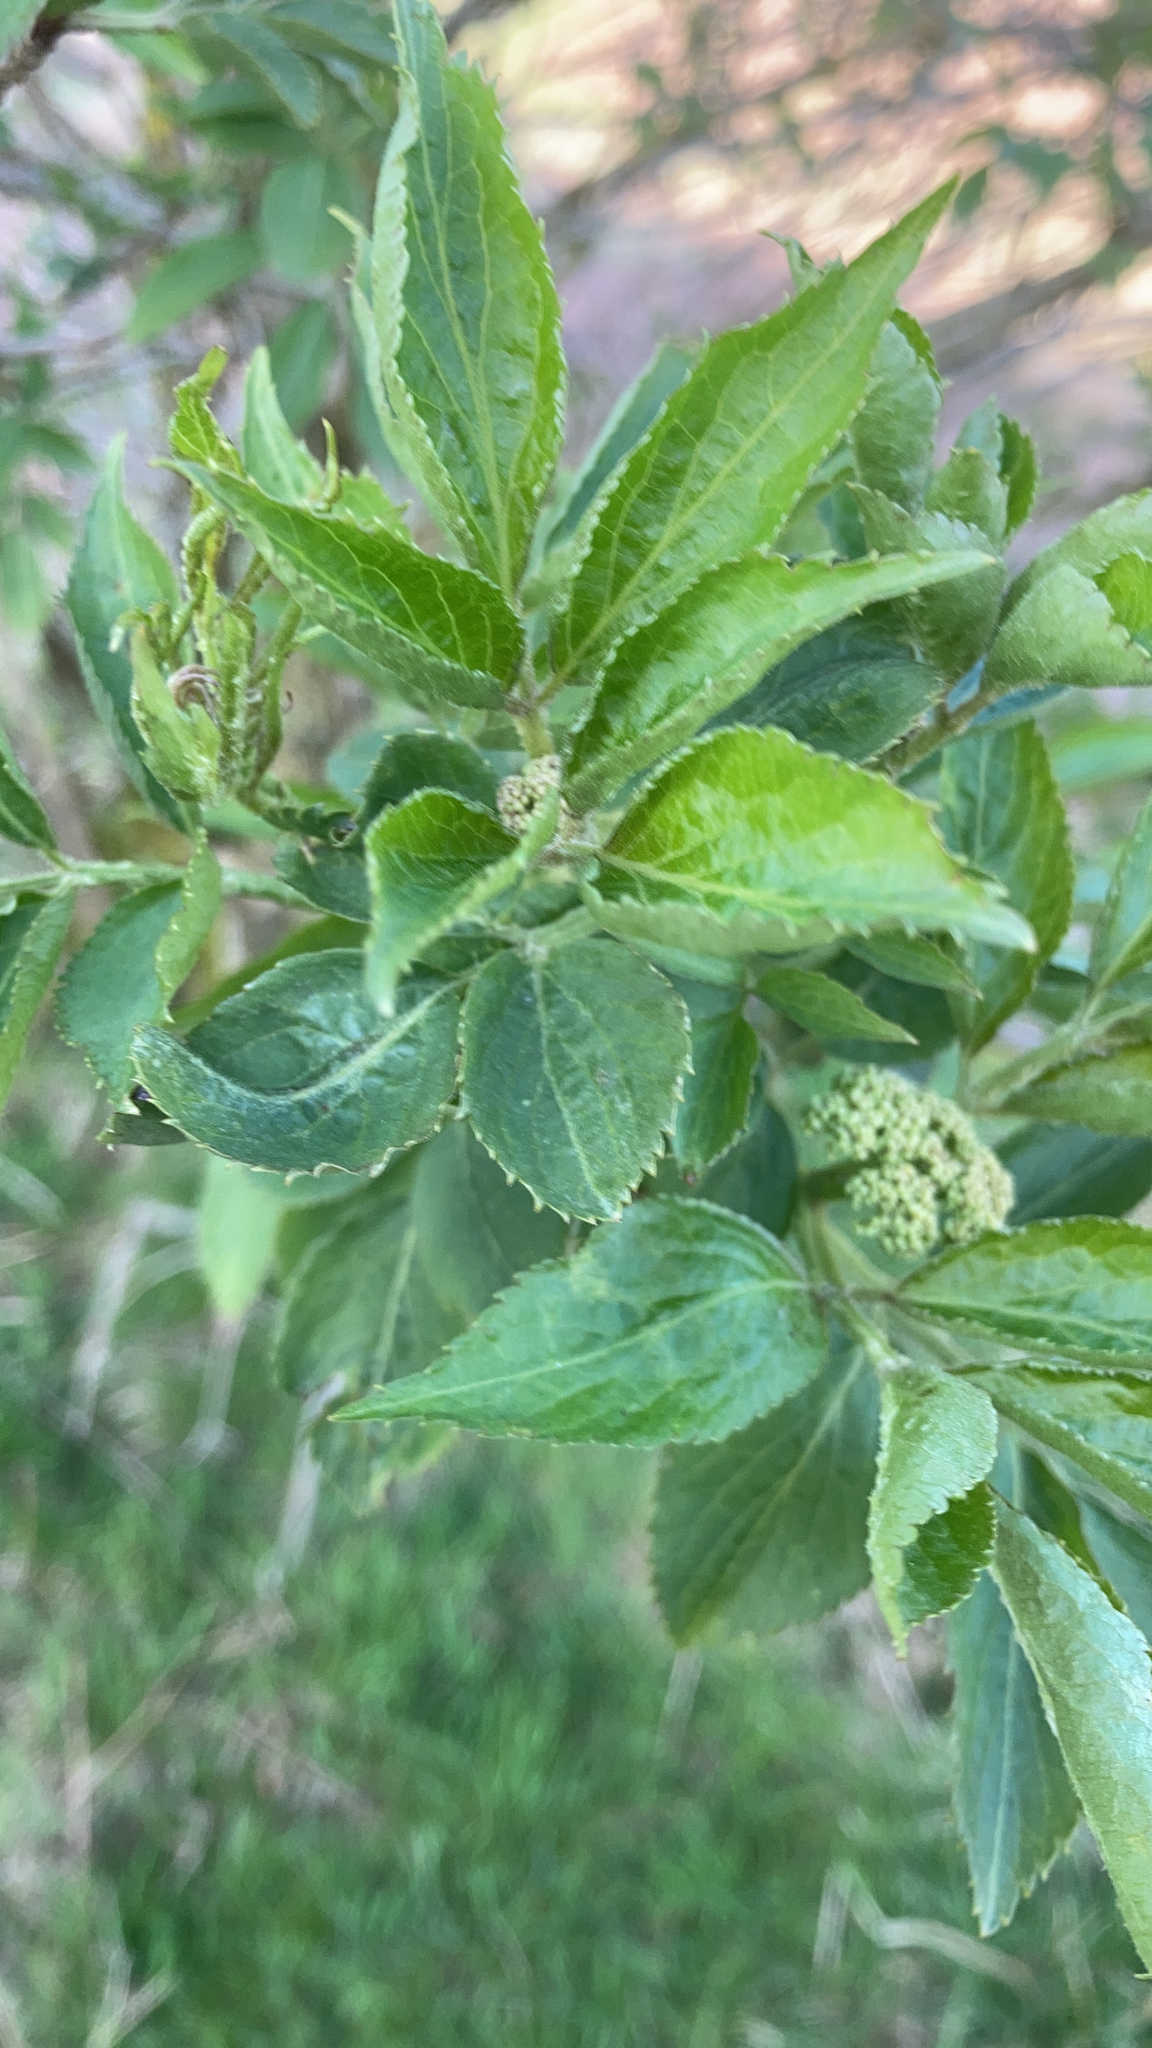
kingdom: Plantae
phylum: Tracheophyta
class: Magnoliopsida
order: Dipsacales
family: Viburnaceae
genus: Sambucus
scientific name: Sambucus nigra
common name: Elder
